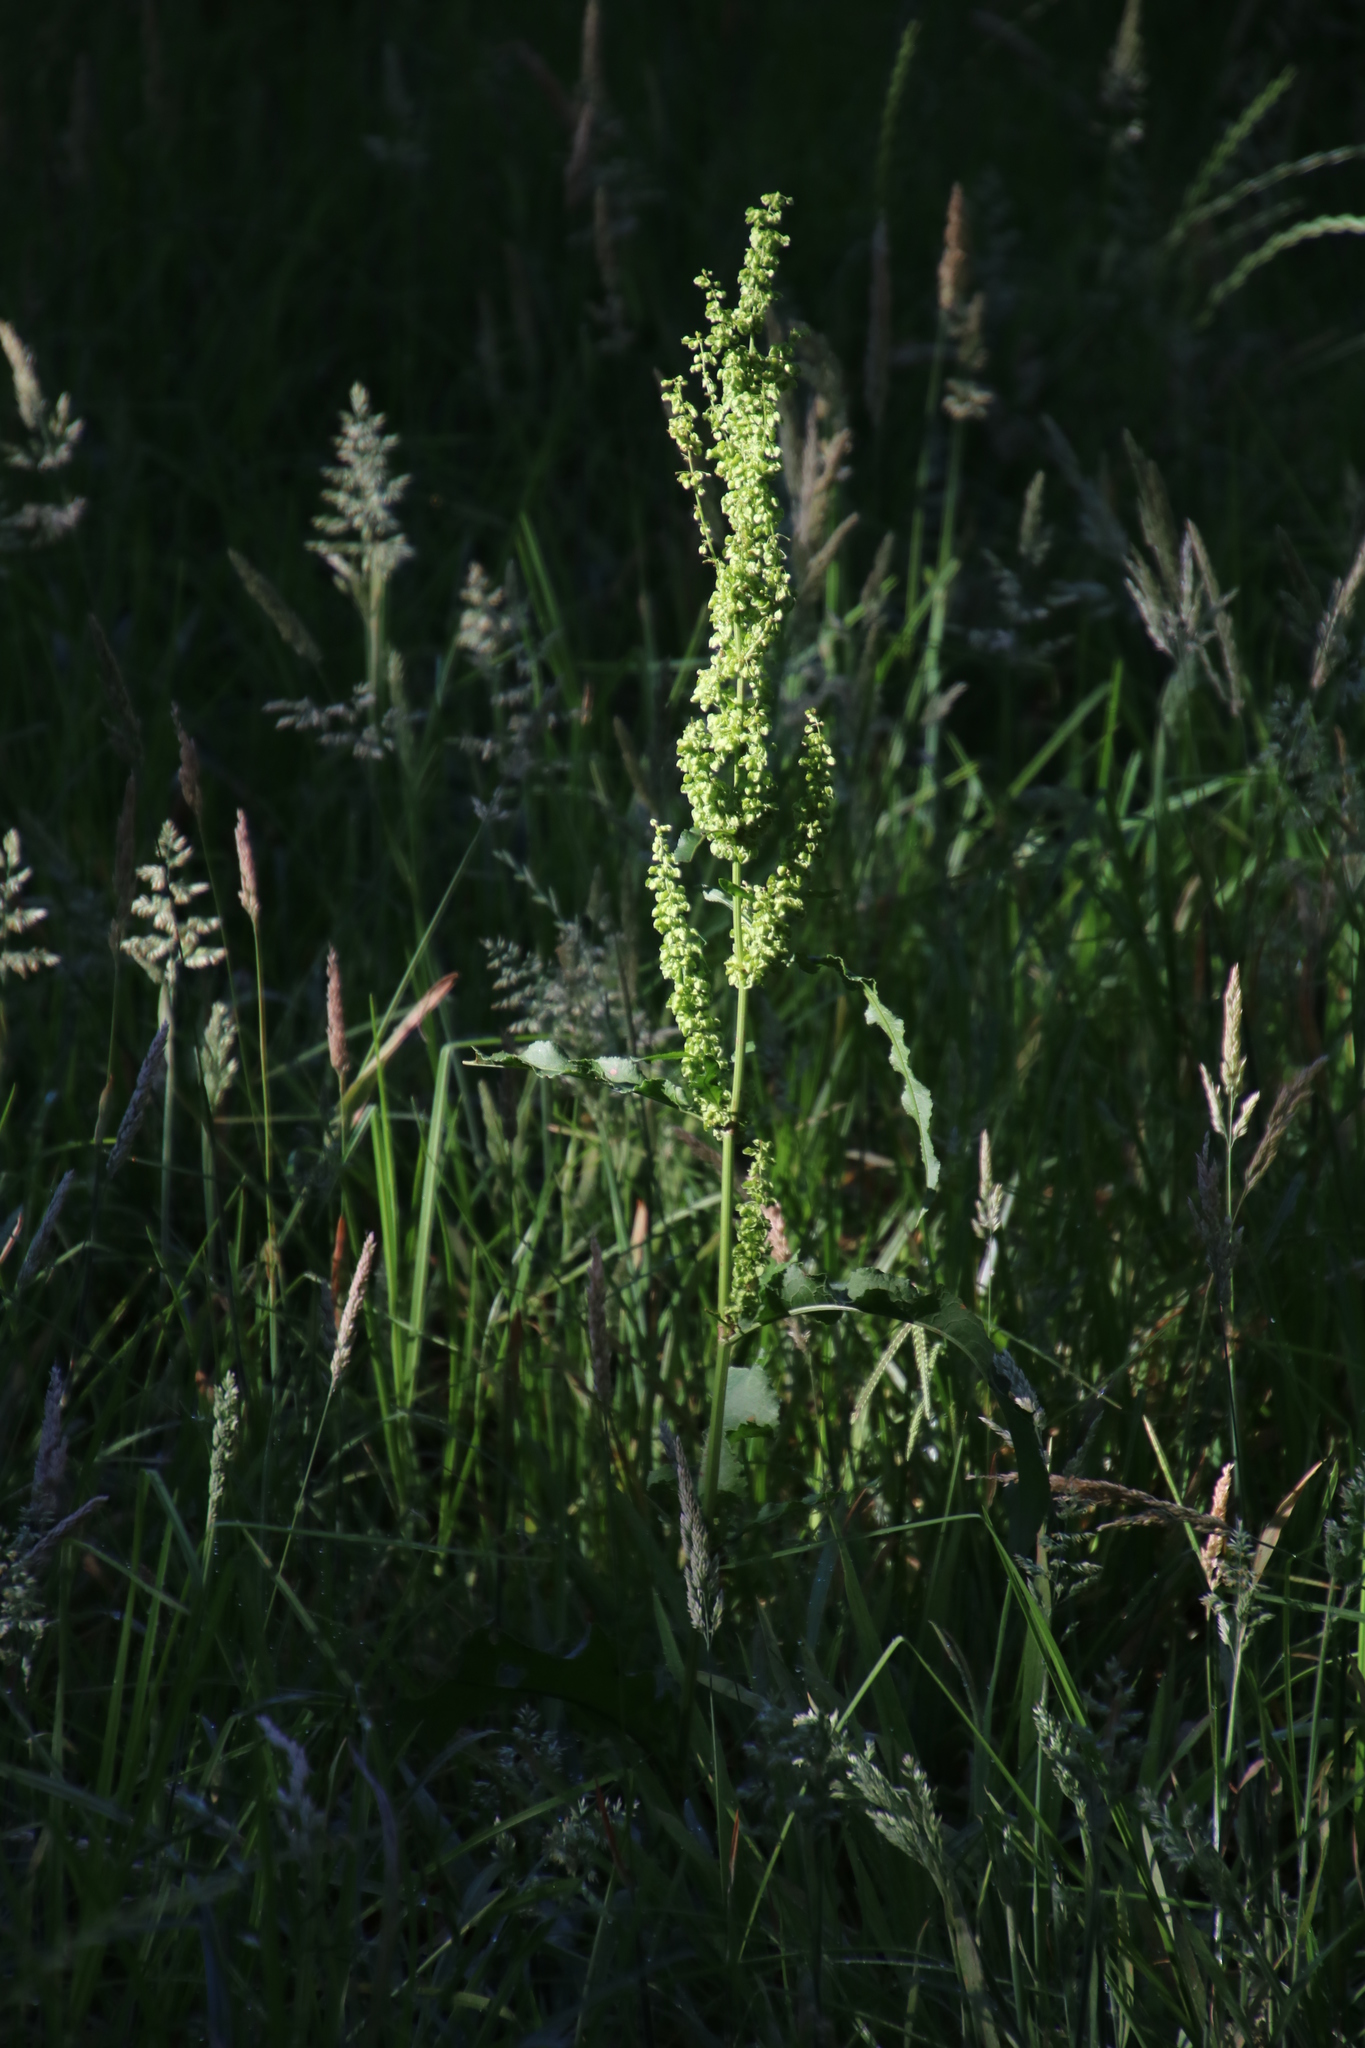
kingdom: Plantae
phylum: Tracheophyta
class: Magnoliopsida
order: Caryophyllales
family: Polygonaceae
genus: Rumex
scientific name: Rumex crispus
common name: Curled dock
